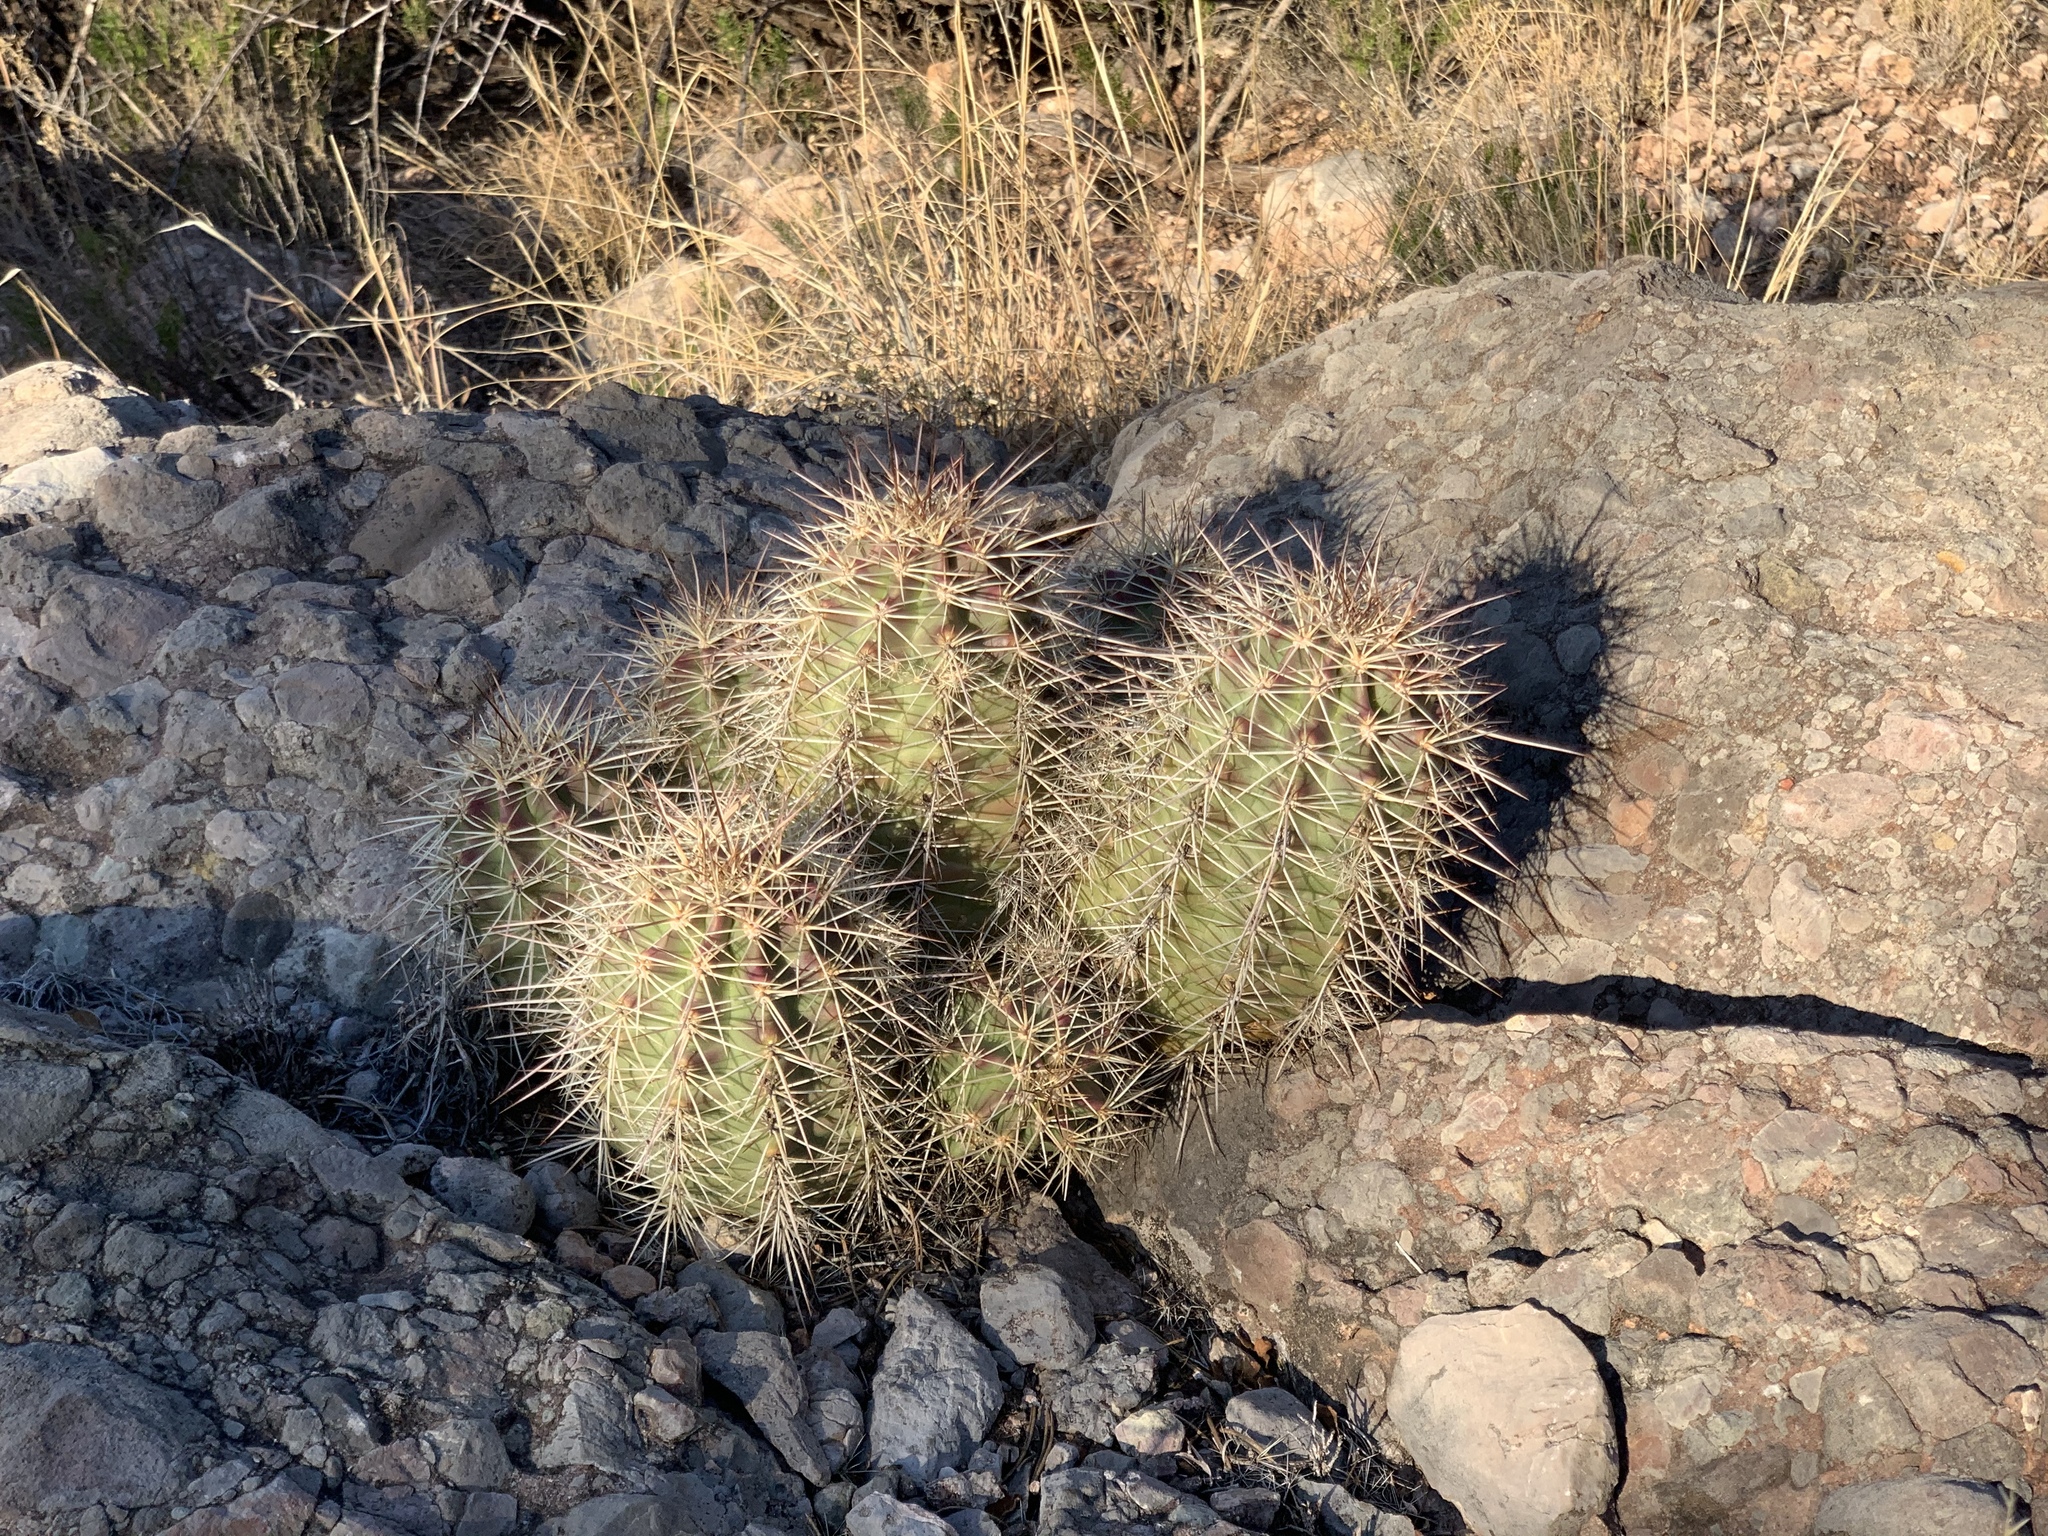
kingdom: Plantae
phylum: Tracheophyta
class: Magnoliopsida
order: Caryophyllales
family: Cactaceae
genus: Echinocereus
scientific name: Echinocereus coccineus
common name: Scarlet hedgehog cactus
